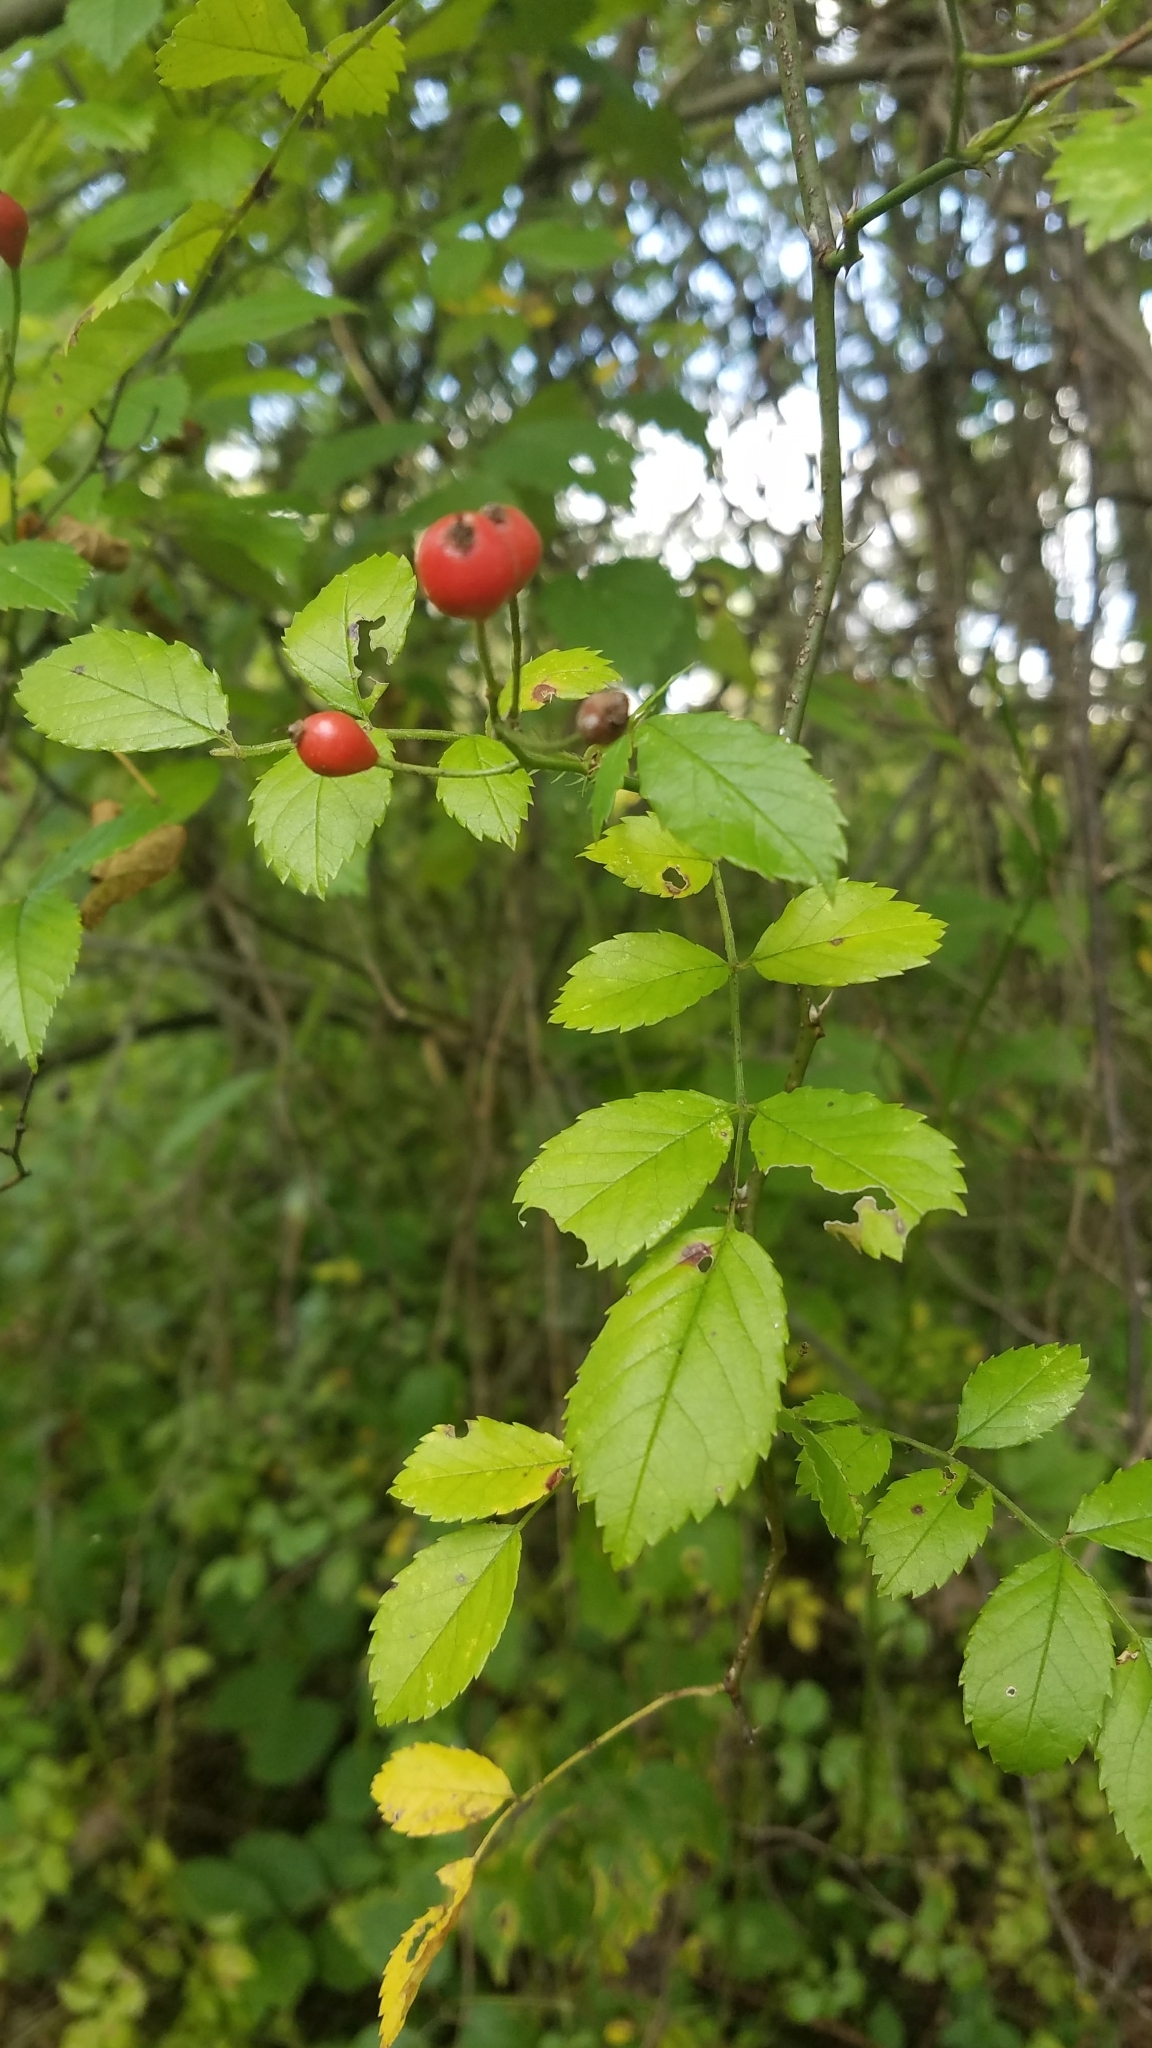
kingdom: Plantae
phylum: Tracheophyta
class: Magnoliopsida
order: Rosales
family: Rosaceae
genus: Rosa
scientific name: Rosa multiflora
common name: Multiflora rose
